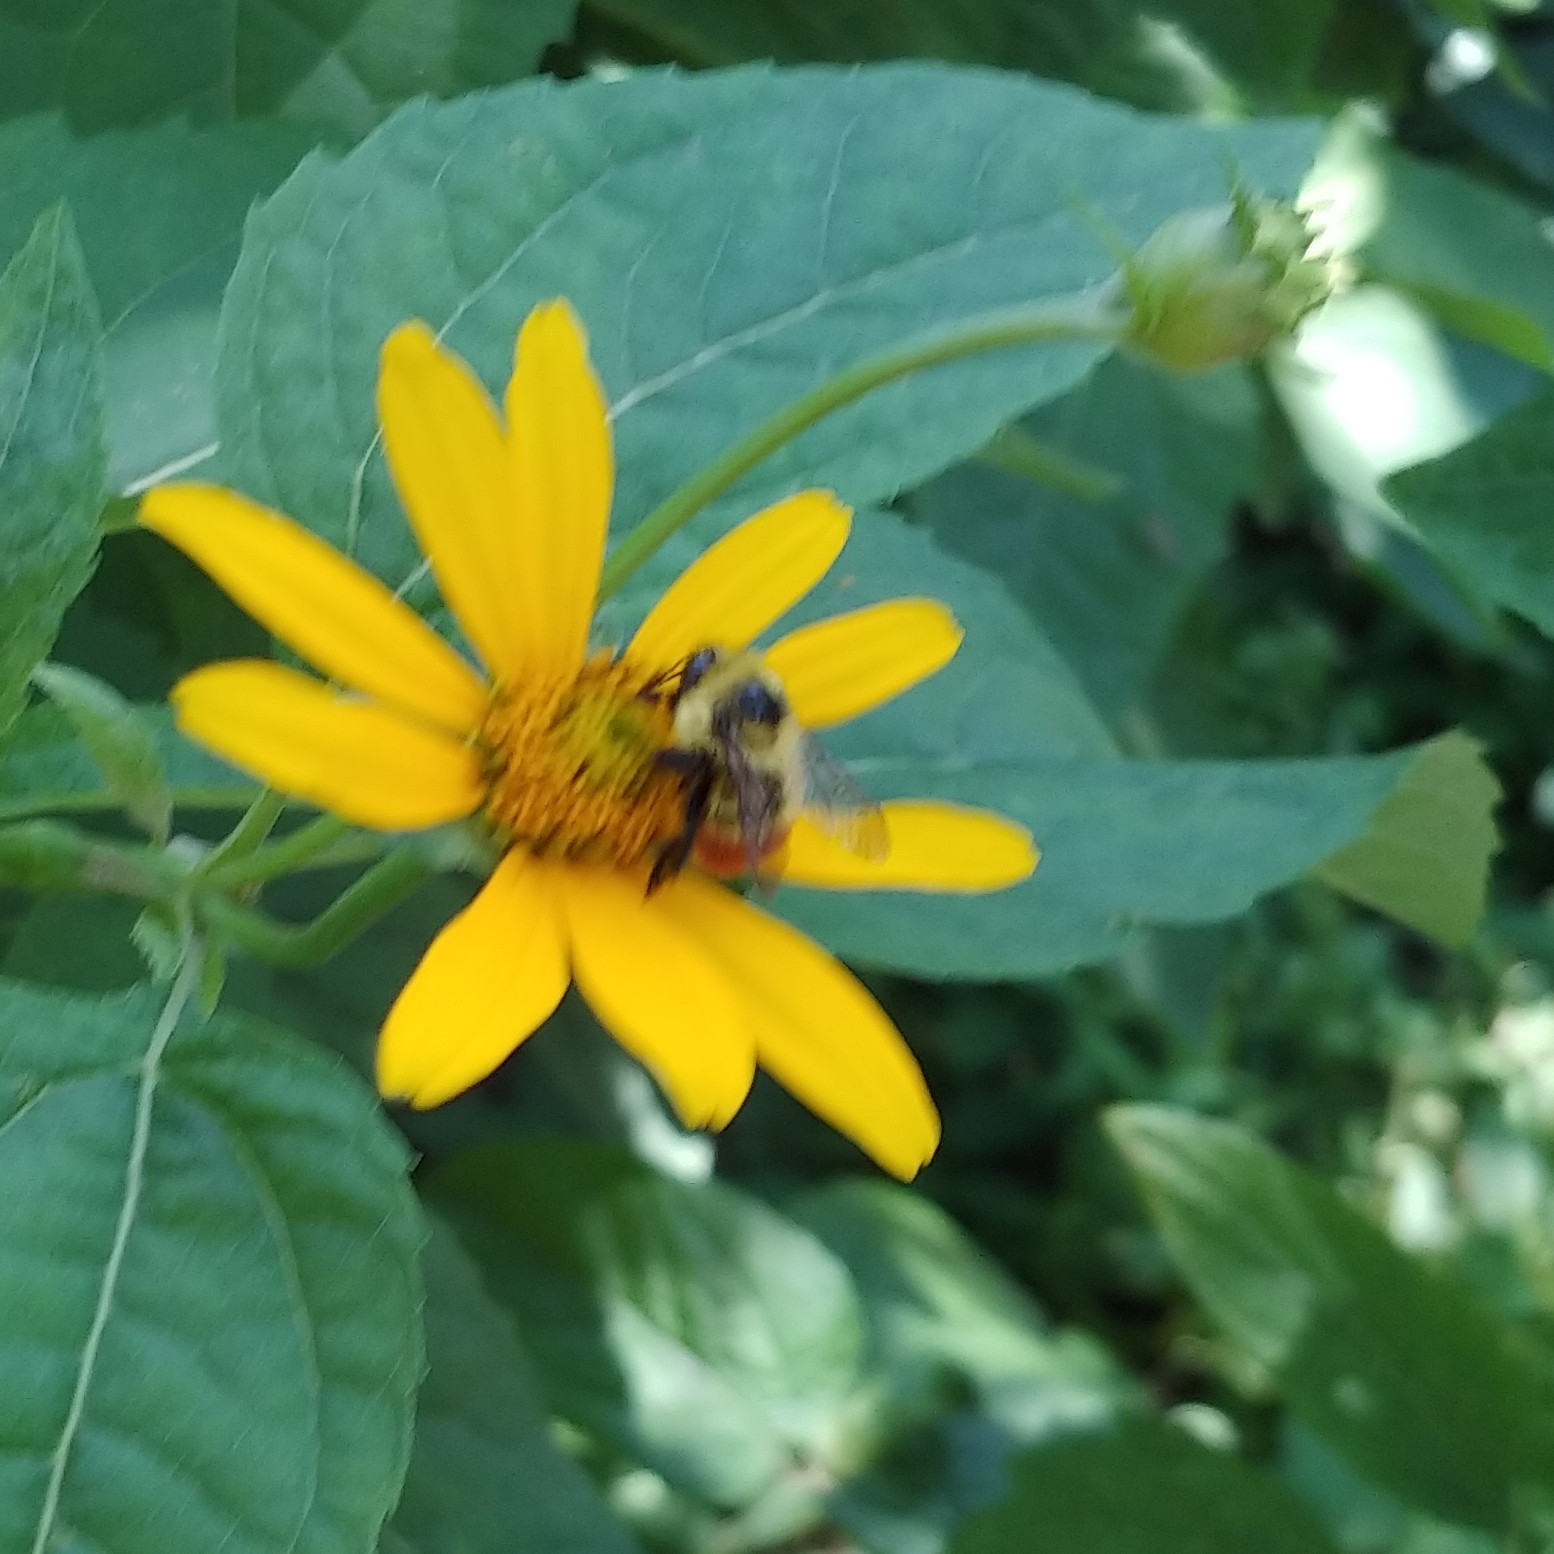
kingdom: Animalia
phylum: Arthropoda
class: Insecta
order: Hymenoptera
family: Apidae
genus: Bombus
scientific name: Bombus rufocinctus
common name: Red-belted bumble bee
